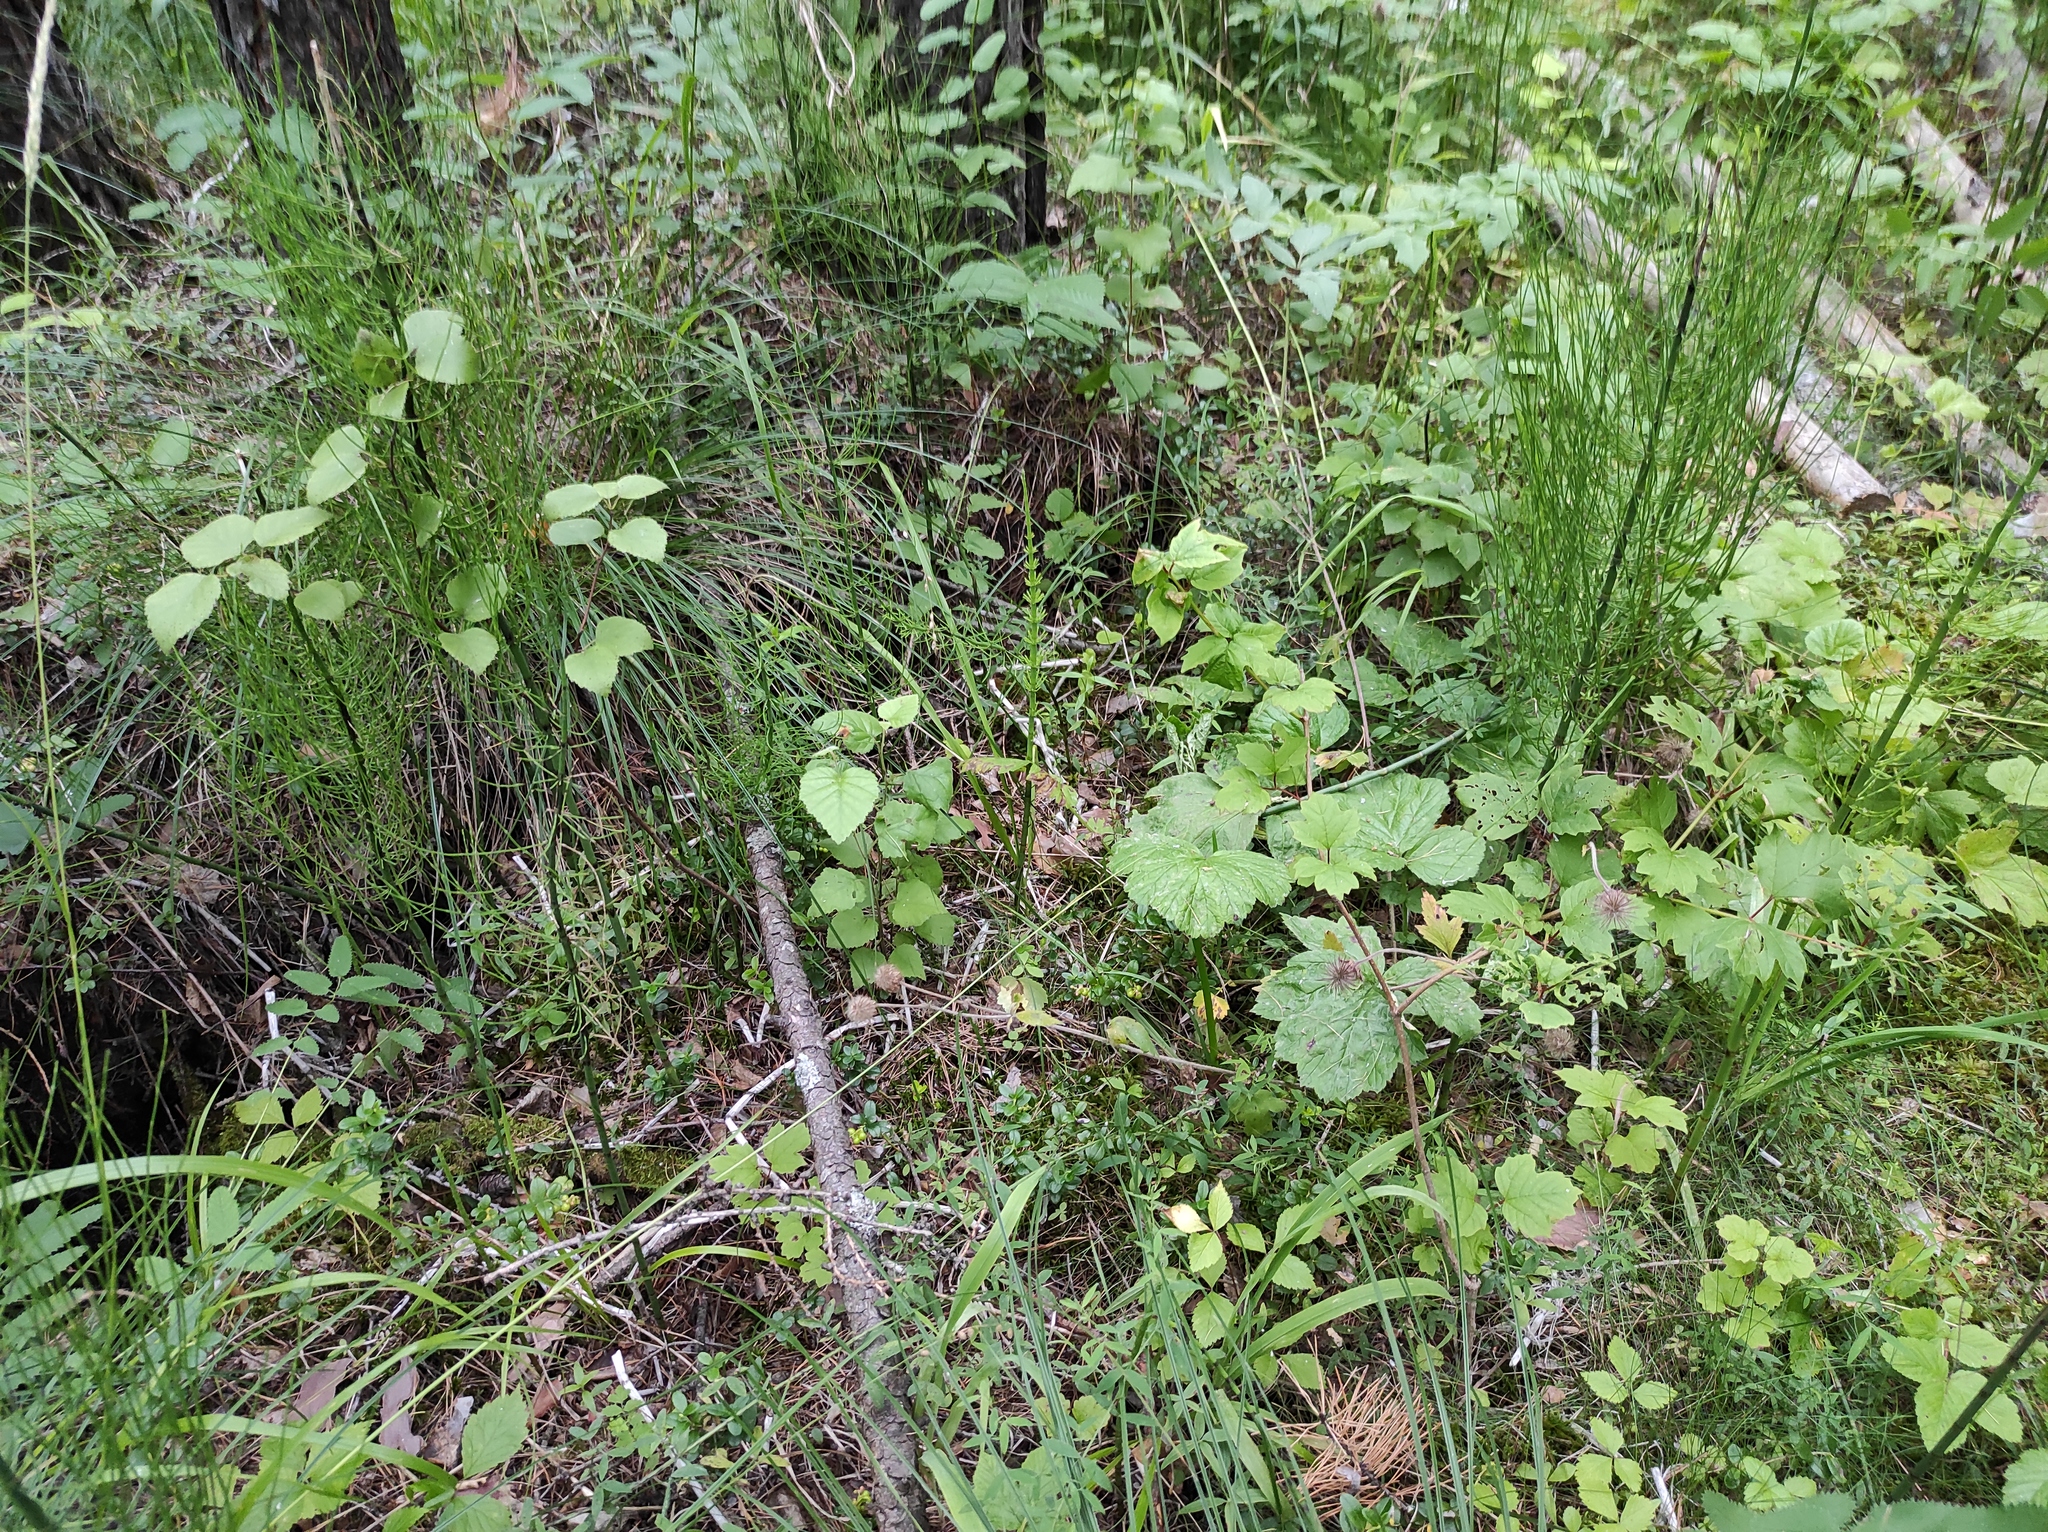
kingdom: Plantae
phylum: Tracheophyta
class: Polypodiopsida
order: Equisetales
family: Equisetaceae
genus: Equisetum
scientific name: Equisetum fluviatile
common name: Water horsetail
